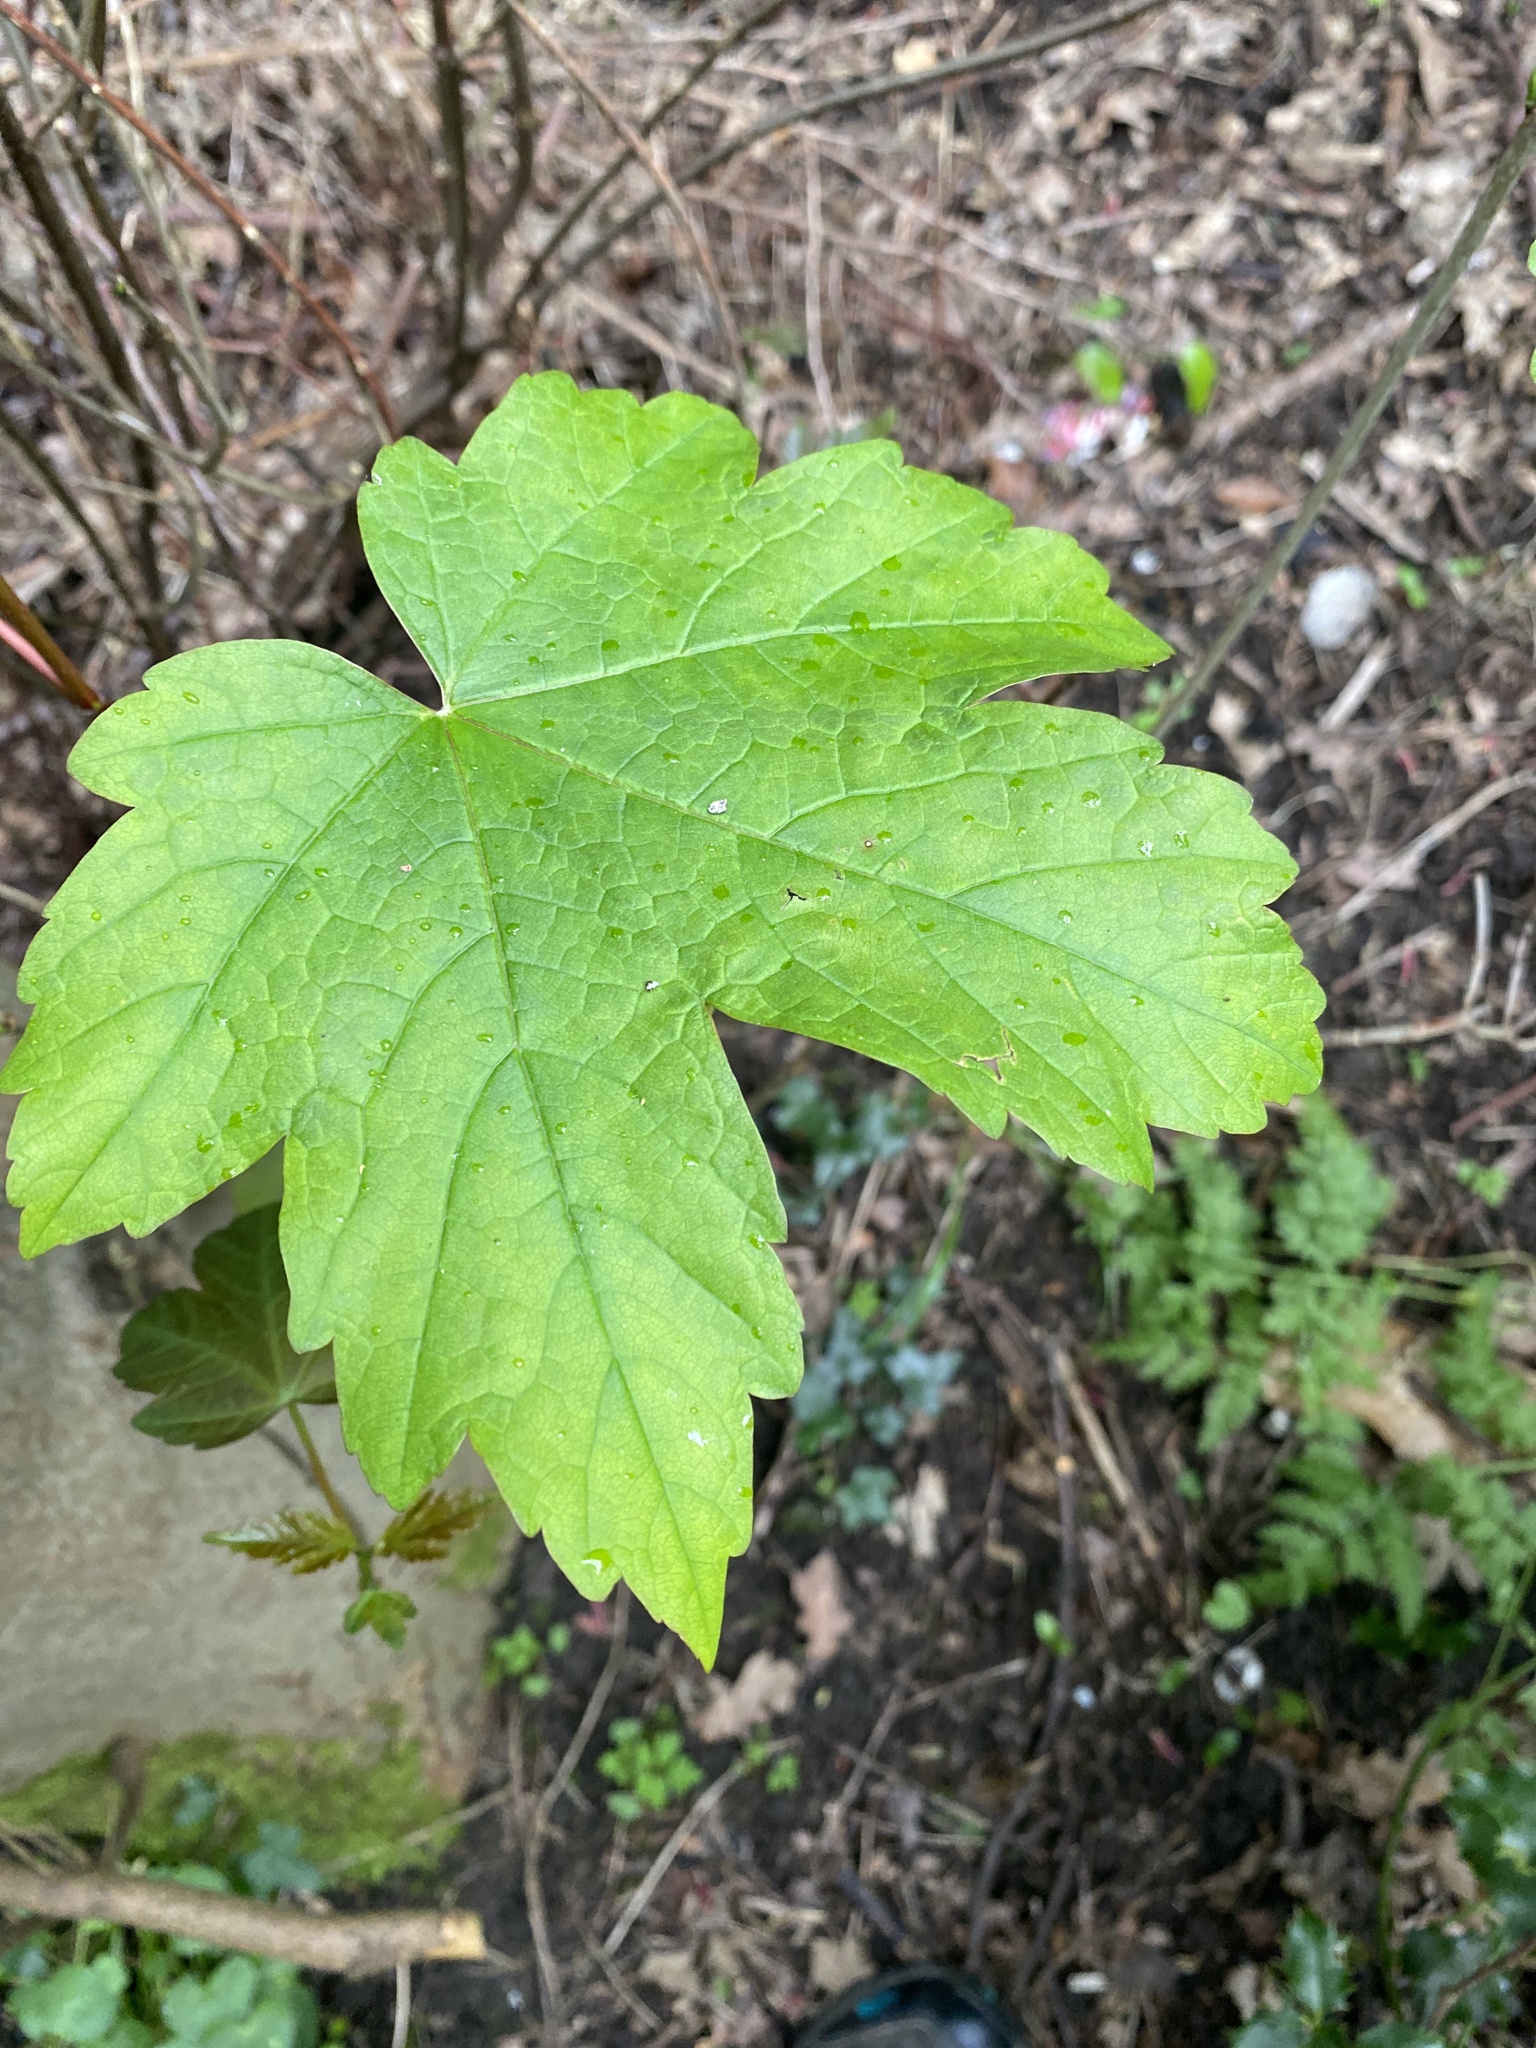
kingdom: Plantae
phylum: Tracheophyta
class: Magnoliopsida
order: Sapindales
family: Sapindaceae
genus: Acer
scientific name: Acer pseudoplatanus
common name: Sycamore
